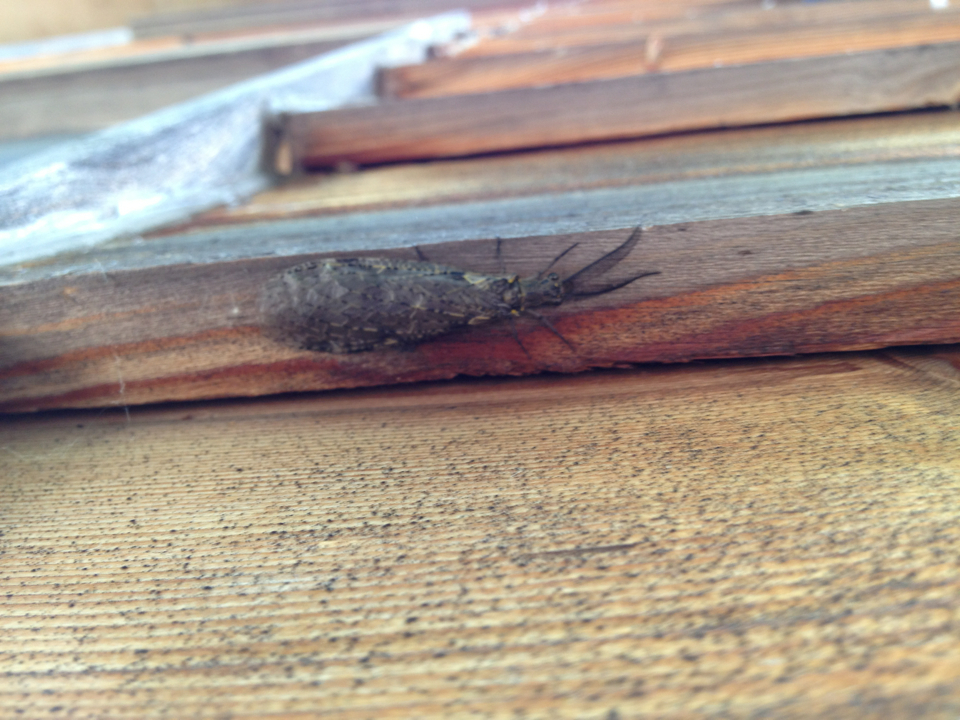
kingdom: Animalia
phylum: Arthropoda
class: Insecta
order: Megaloptera
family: Corydalidae
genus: Chauliodes
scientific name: Chauliodes rastricornis
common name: Spring fishfly
